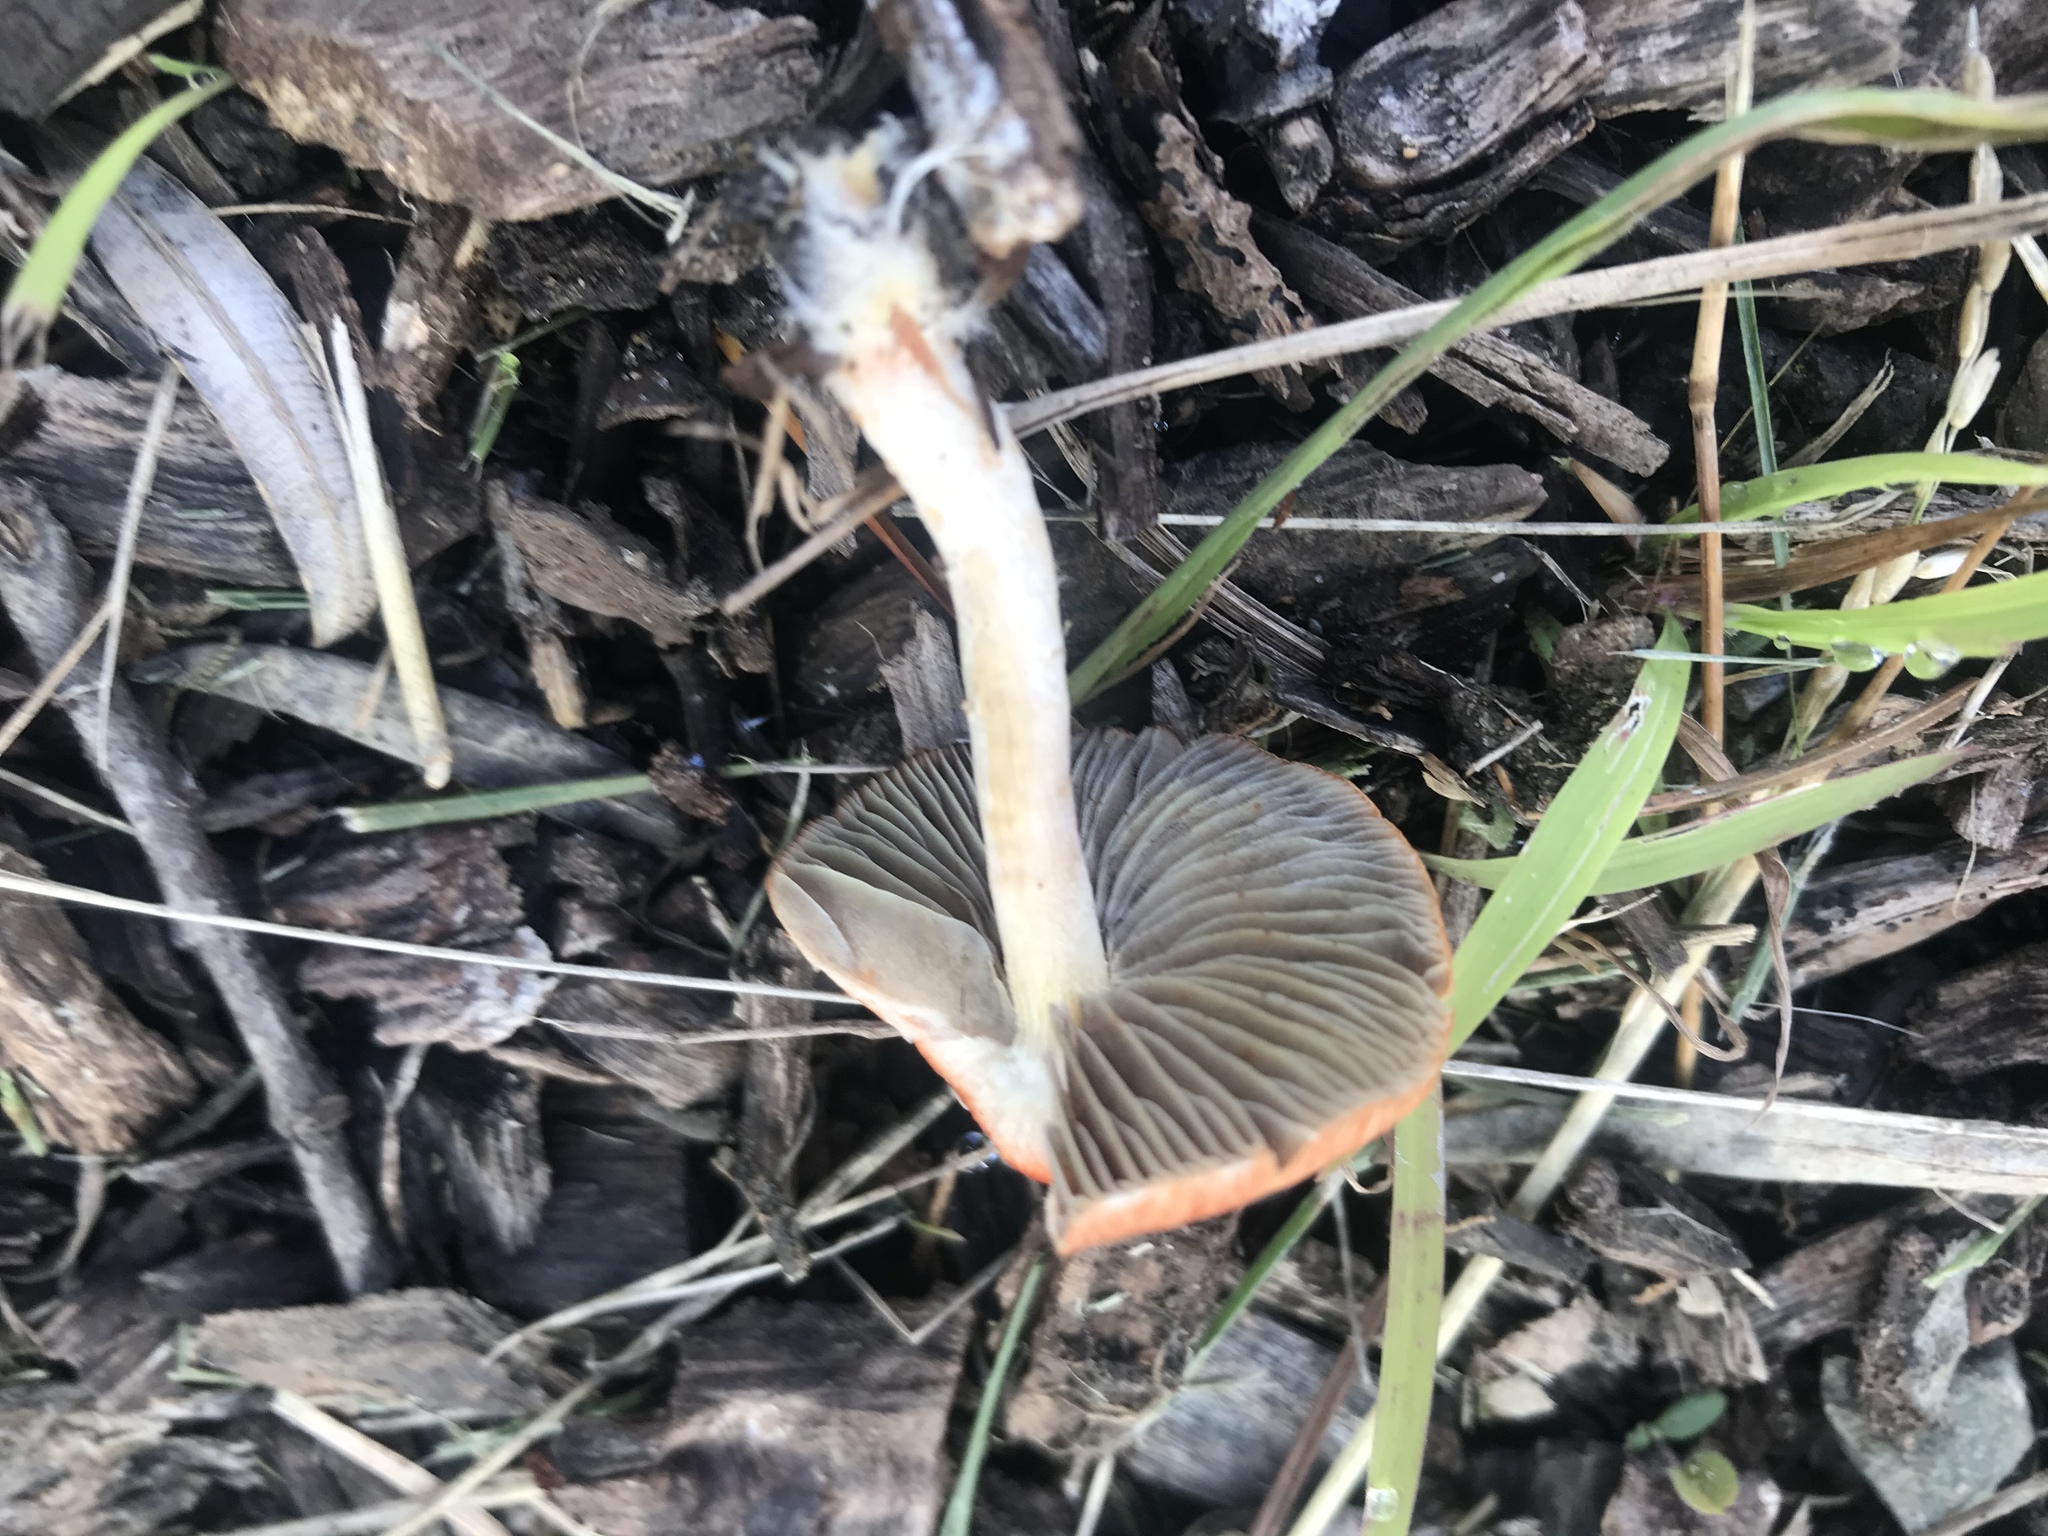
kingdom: Fungi
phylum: Basidiomycota
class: Agaricomycetes
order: Agaricales
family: Strophariaceae
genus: Leratiomyces
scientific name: Leratiomyces ceres
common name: Redlead roundhead
